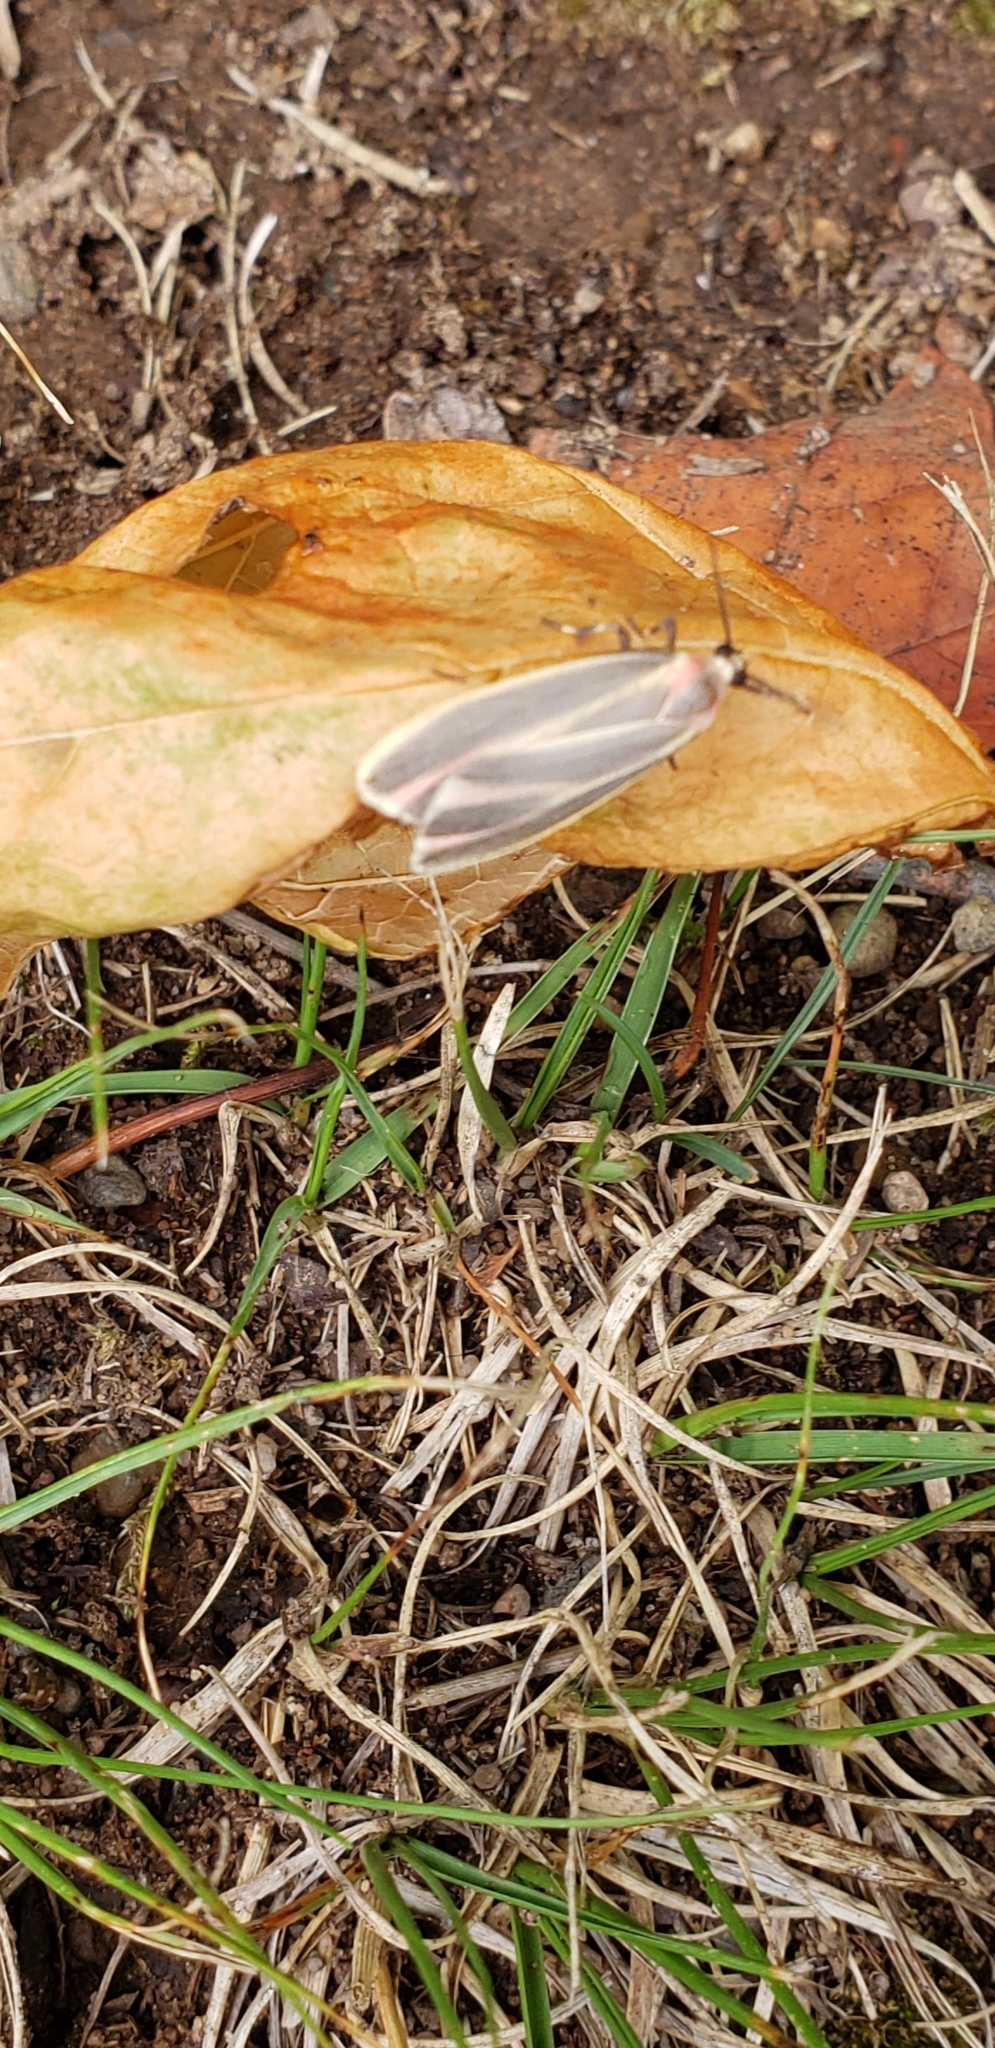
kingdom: Animalia
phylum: Arthropoda
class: Insecta
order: Lepidoptera
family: Erebidae
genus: Hypoprepia
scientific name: Hypoprepia fucosa
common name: Painted lichen moth
